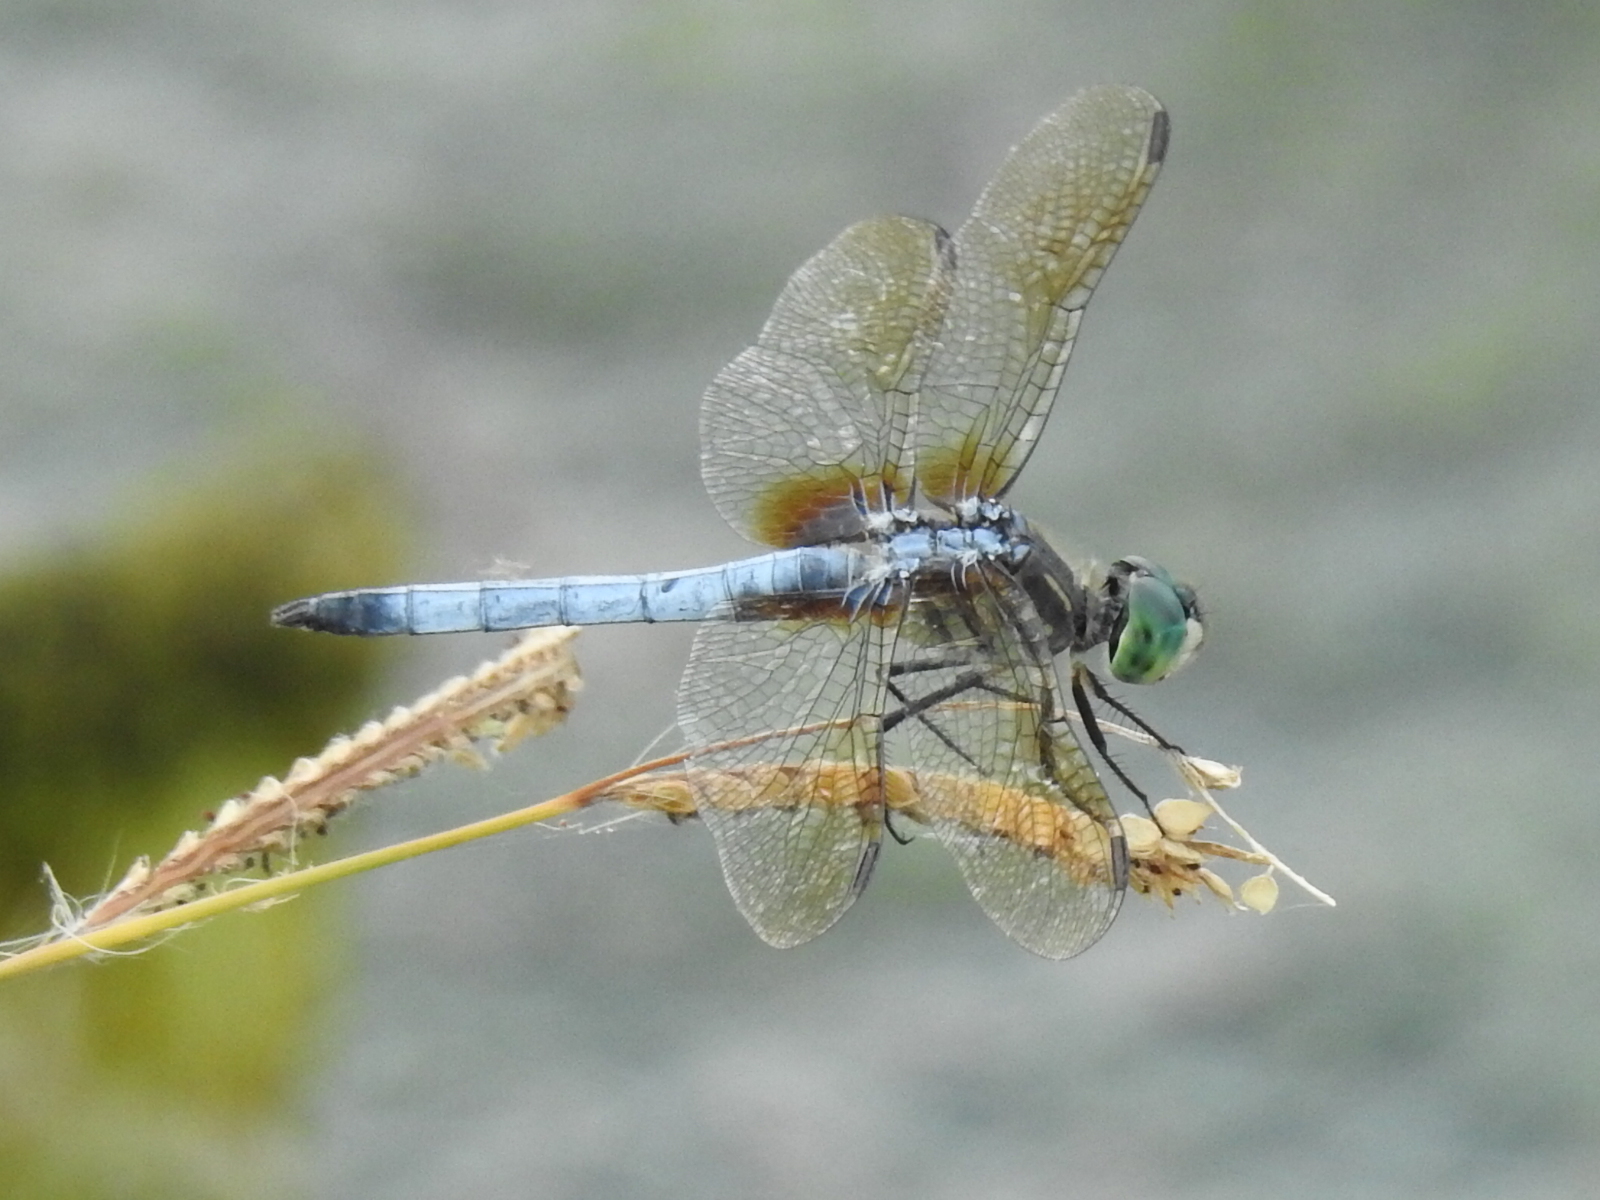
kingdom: Animalia
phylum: Arthropoda
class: Insecta
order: Odonata
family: Libellulidae
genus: Pachydiplax
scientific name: Pachydiplax longipennis
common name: Blue dasher
